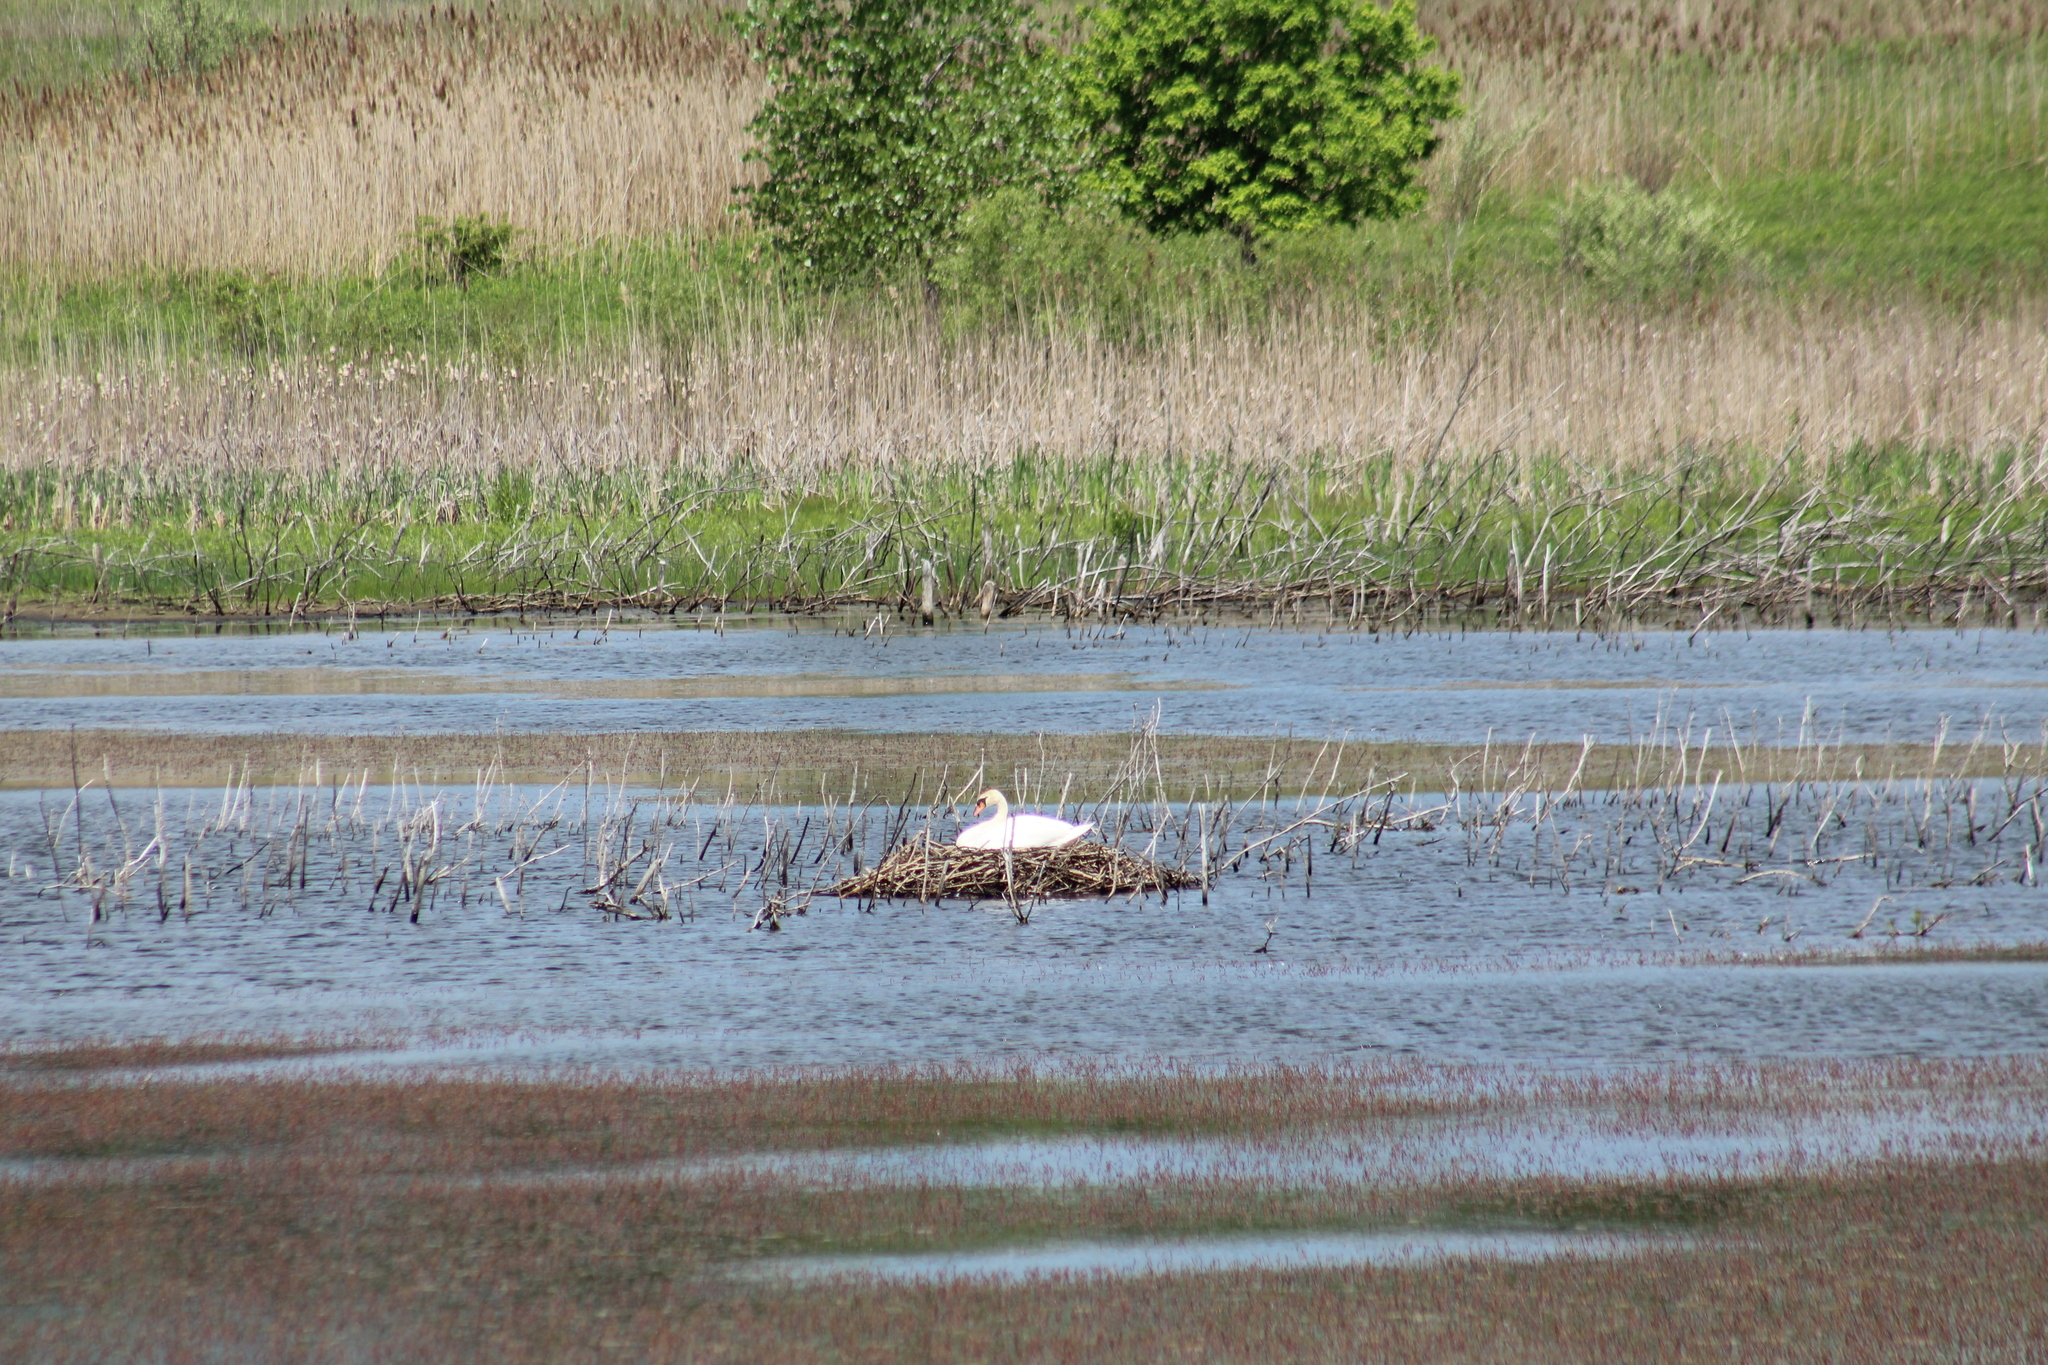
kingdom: Animalia
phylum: Chordata
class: Aves
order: Anseriformes
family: Anatidae
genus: Cygnus
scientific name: Cygnus olor
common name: Mute swan
